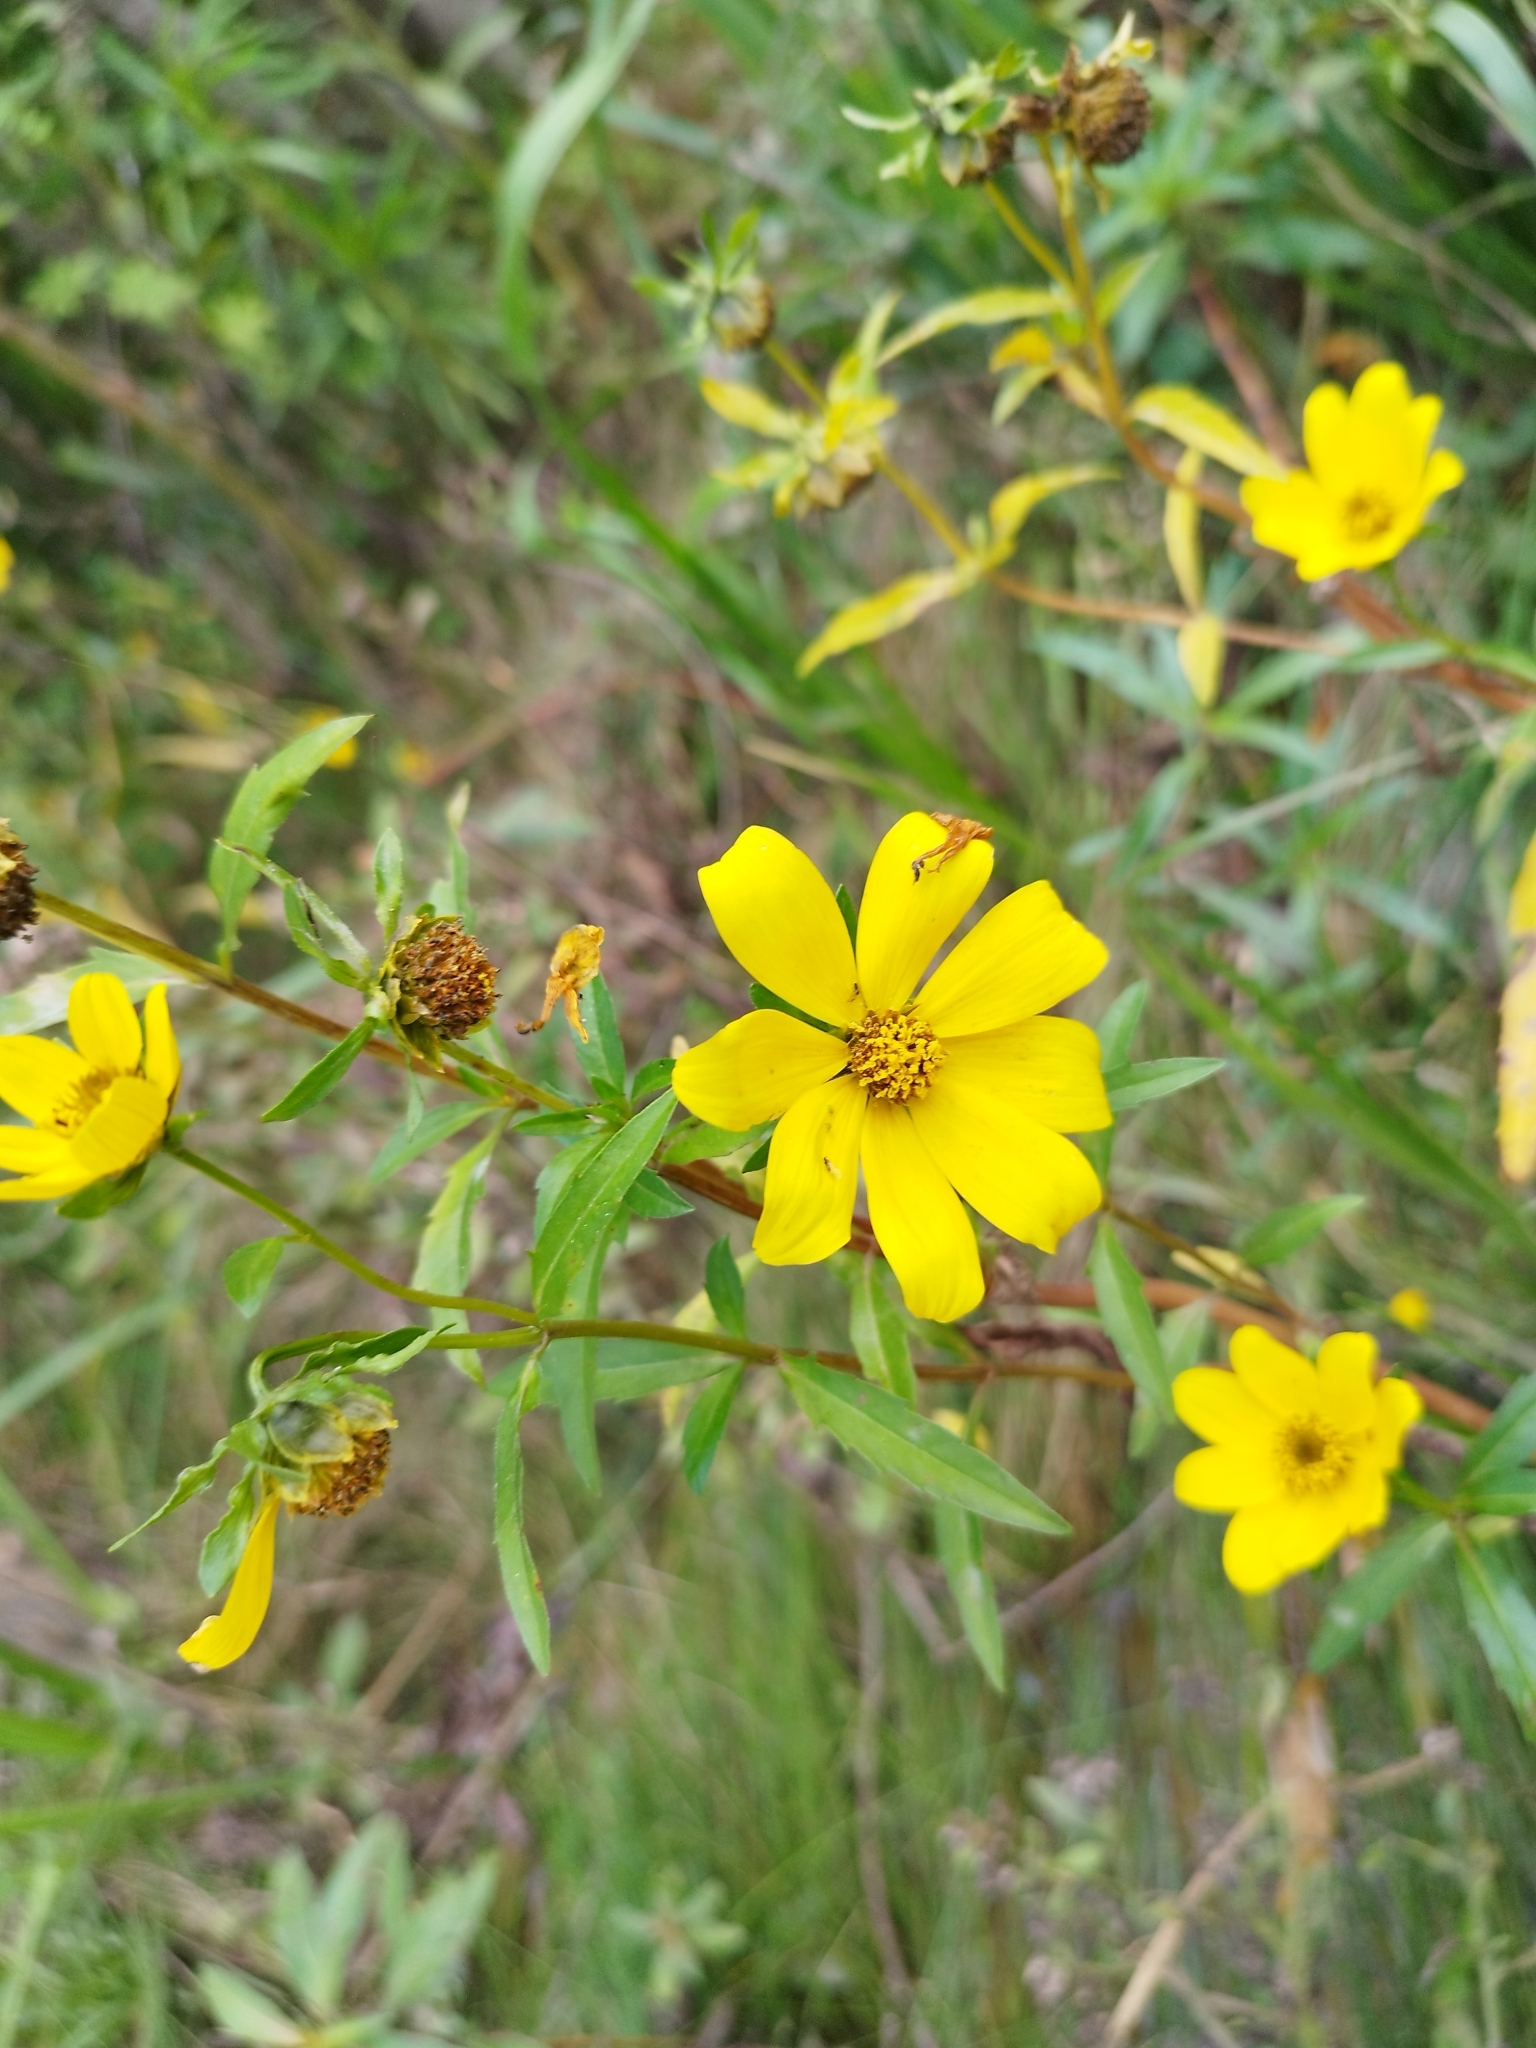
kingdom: Plantae
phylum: Tracheophyta
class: Magnoliopsida
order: Asterales
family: Asteraceae
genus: Bidens
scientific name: Bidens laevis
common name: Larger bur-marigold
